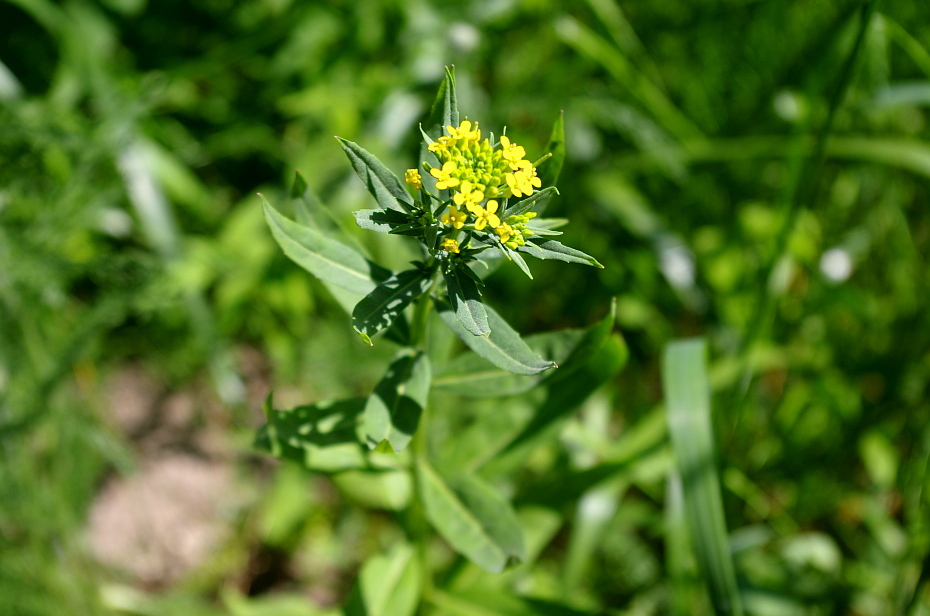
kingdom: Plantae
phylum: Tracheophyta
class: Magnoliopsida
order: Brassicales
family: Brassicaceae
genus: Erysimum
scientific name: Erysimum cheiranthoides
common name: Treacle mustard
